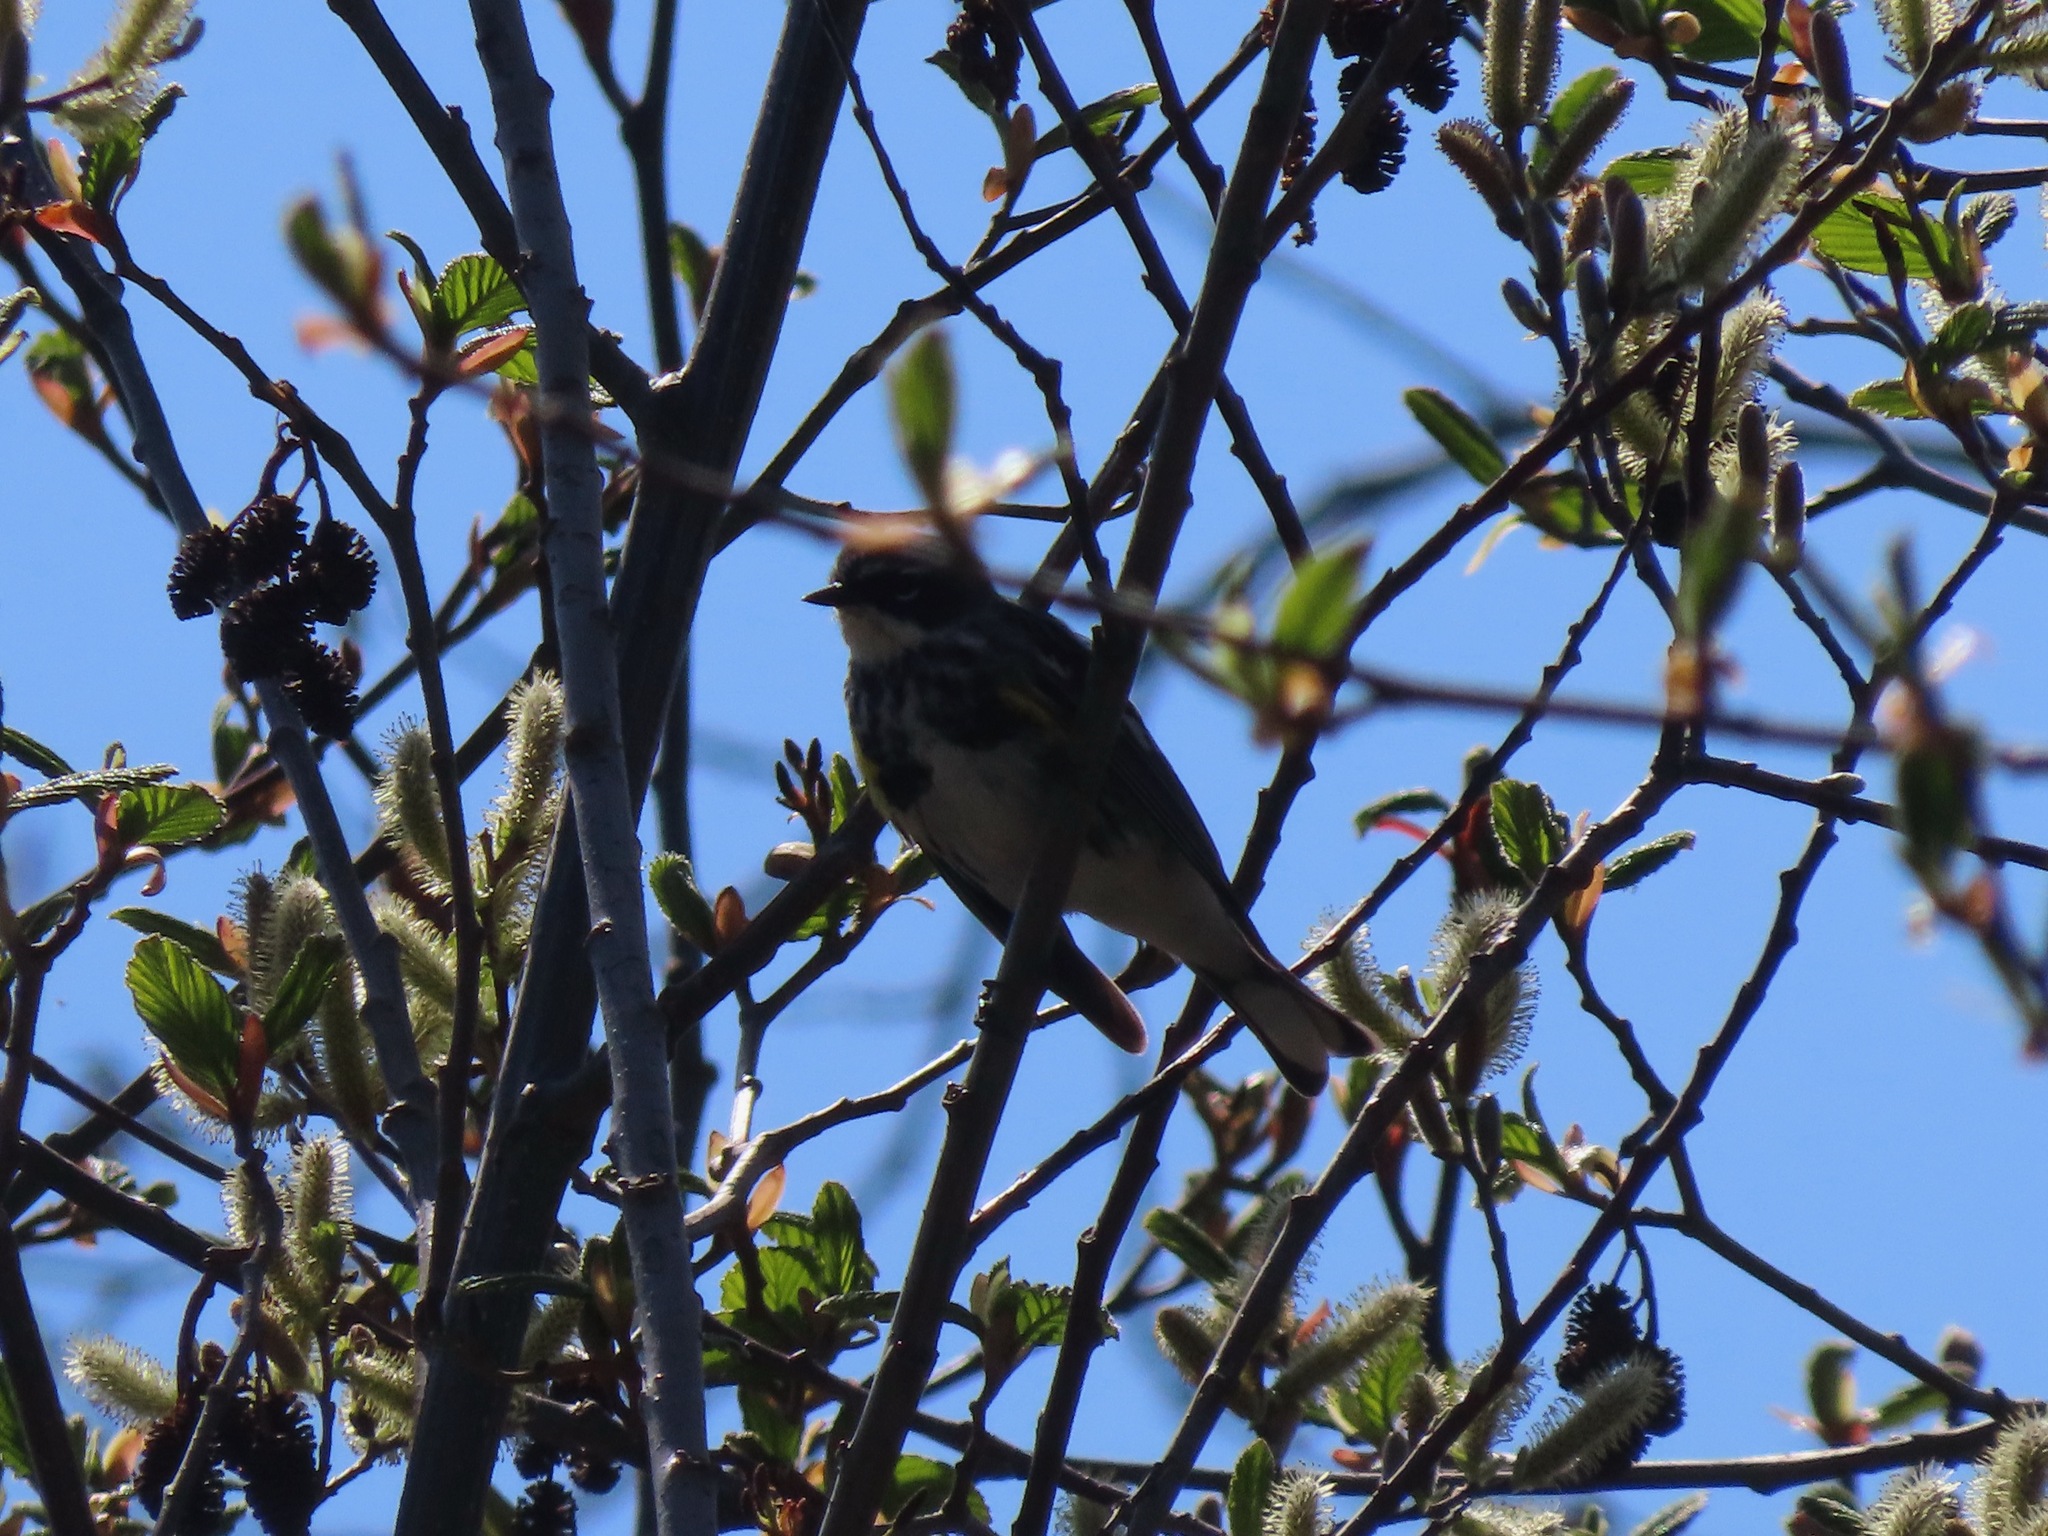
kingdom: Animalia
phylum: Chordata
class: Aves
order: Passeriformes
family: Parulidae
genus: Setophaga
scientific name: Setophaga coronata
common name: Myrtle warbler
